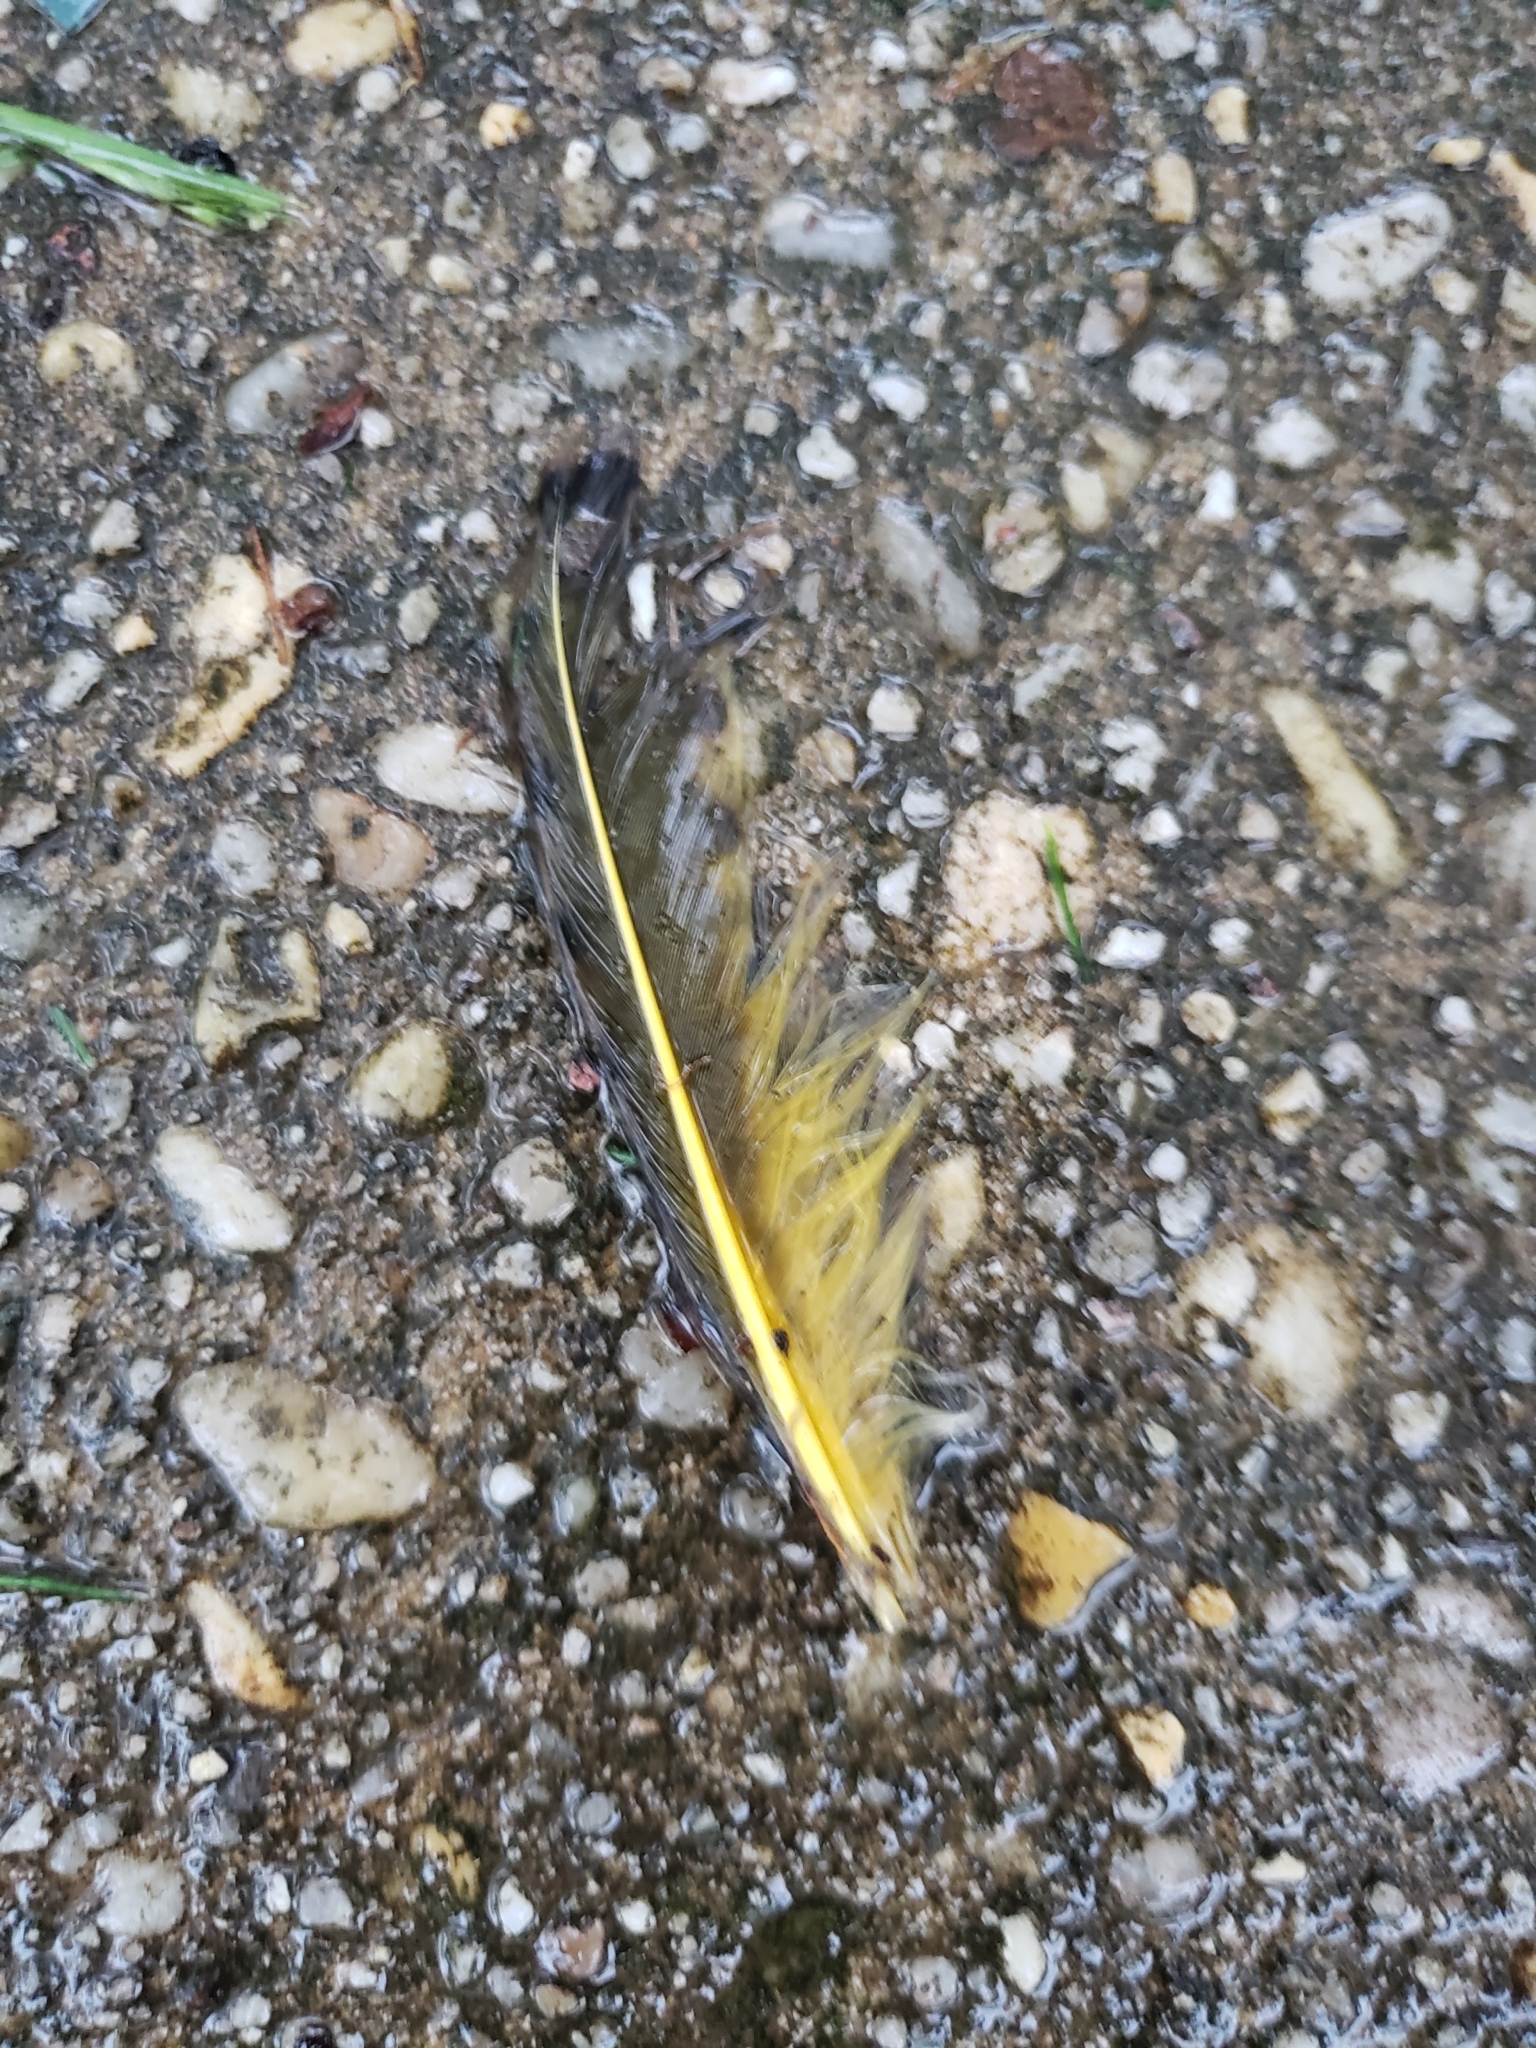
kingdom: Animalia
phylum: Chordata
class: Aves
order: Piciformes
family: Picidae
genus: Colaptes
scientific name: Colaptes auratus
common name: Northern flicker
